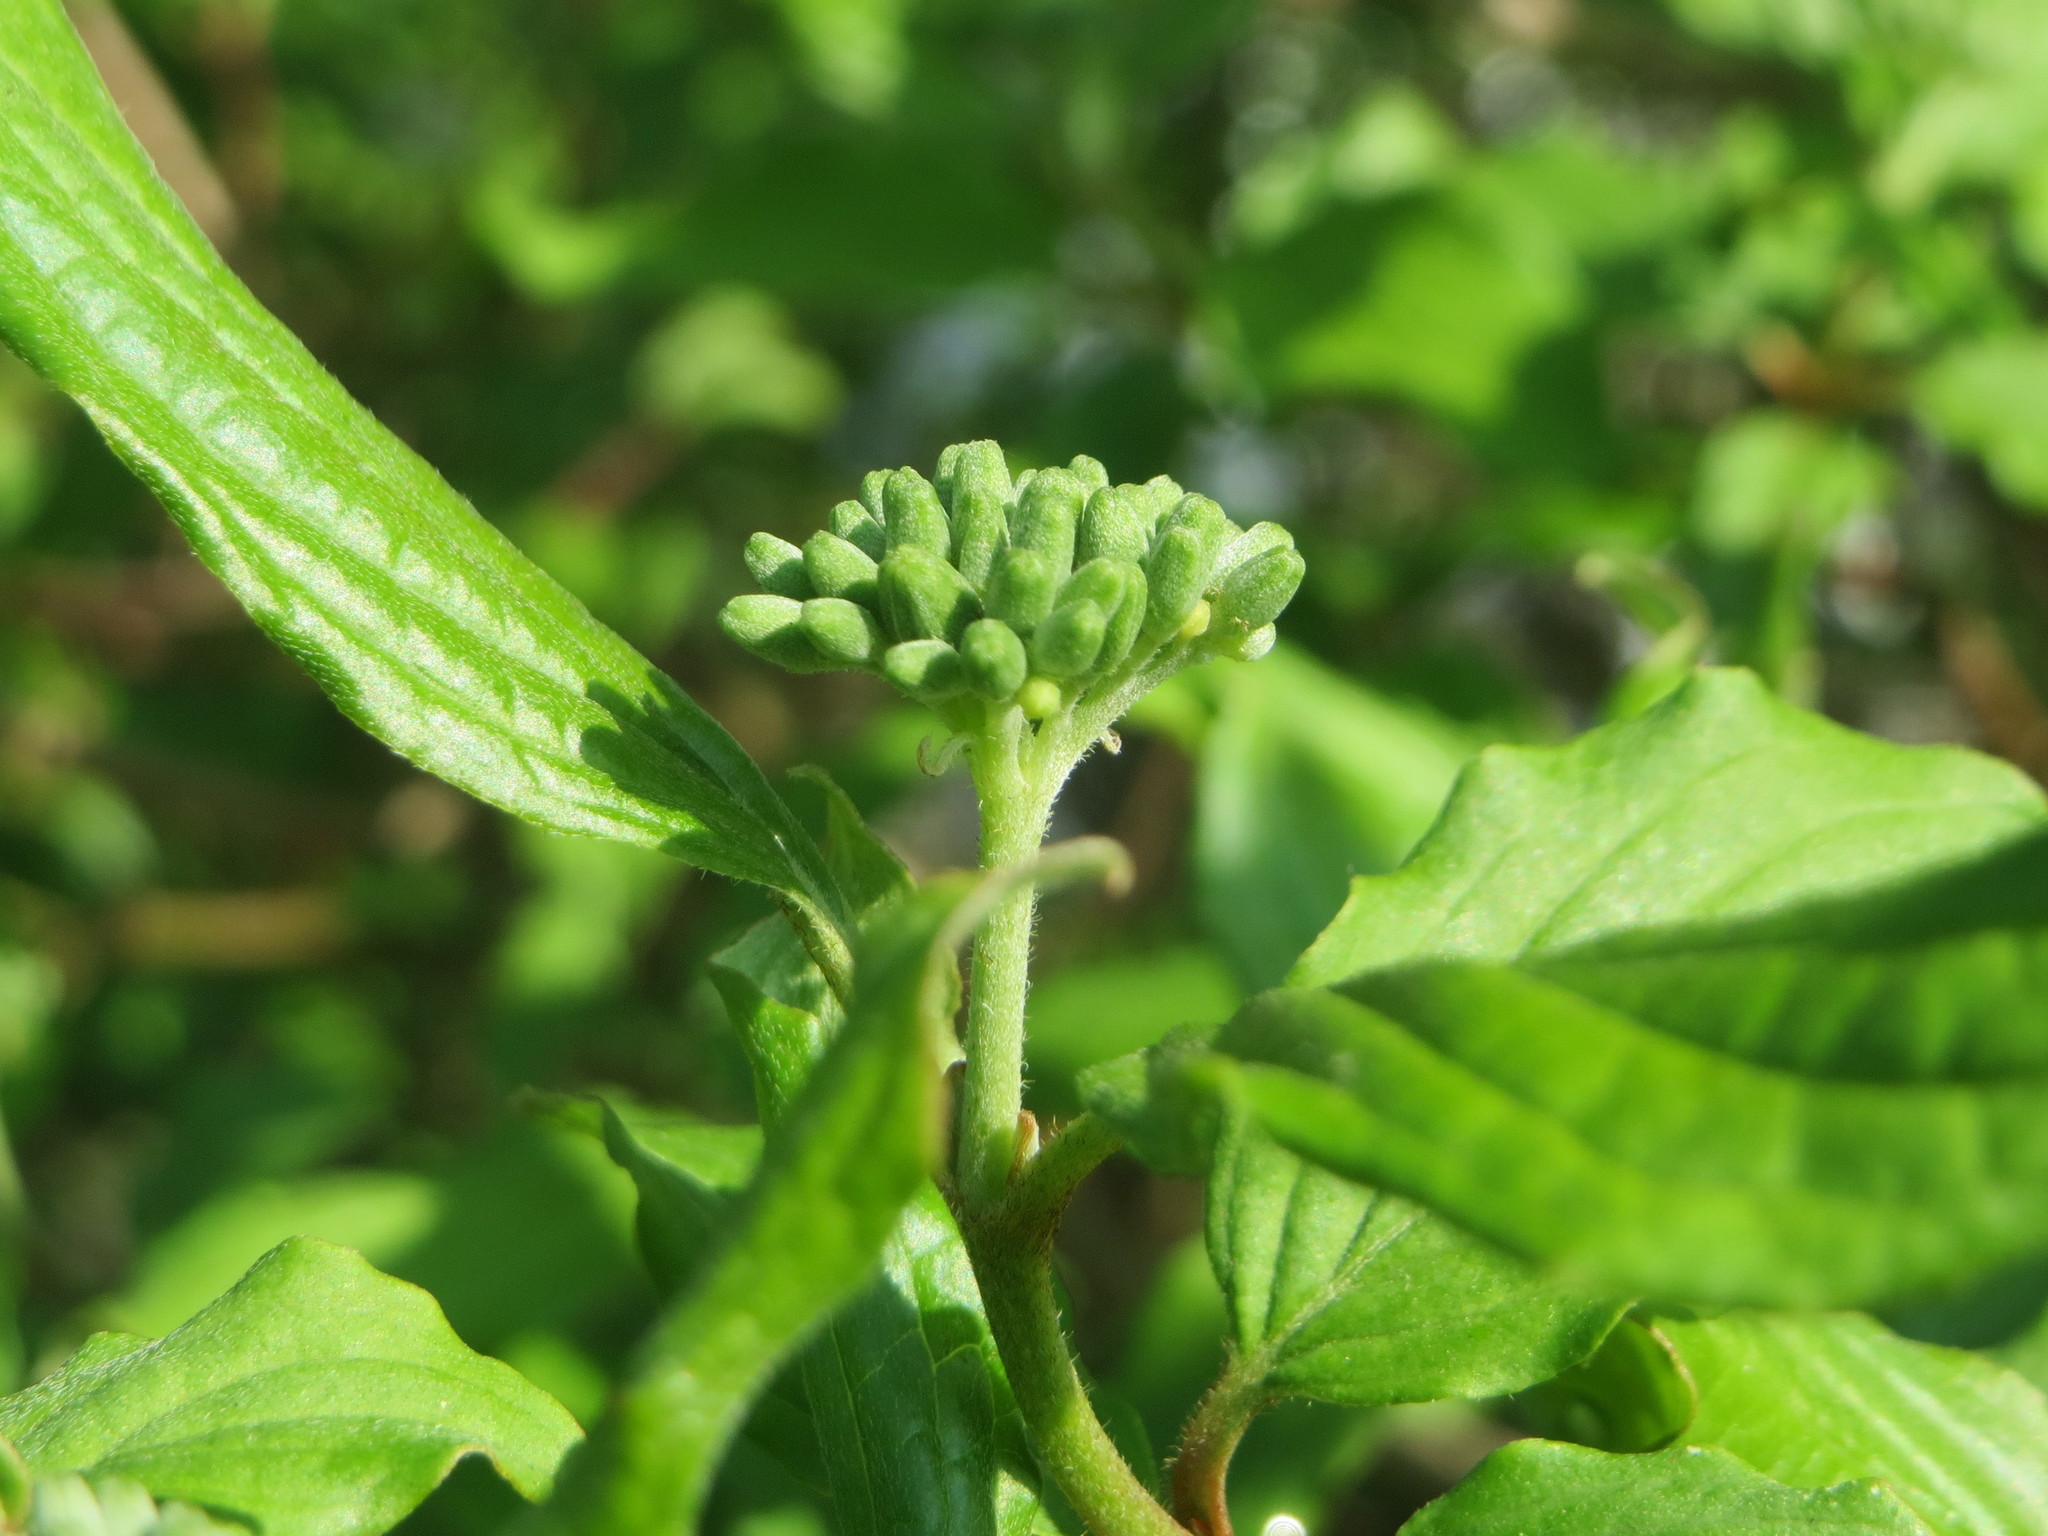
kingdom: Plantae
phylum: Tracheophyta
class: Magnoliopsida
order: Cornales
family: Cornaceae
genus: Cornus
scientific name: Cornus sanguinea
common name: Dogwood
